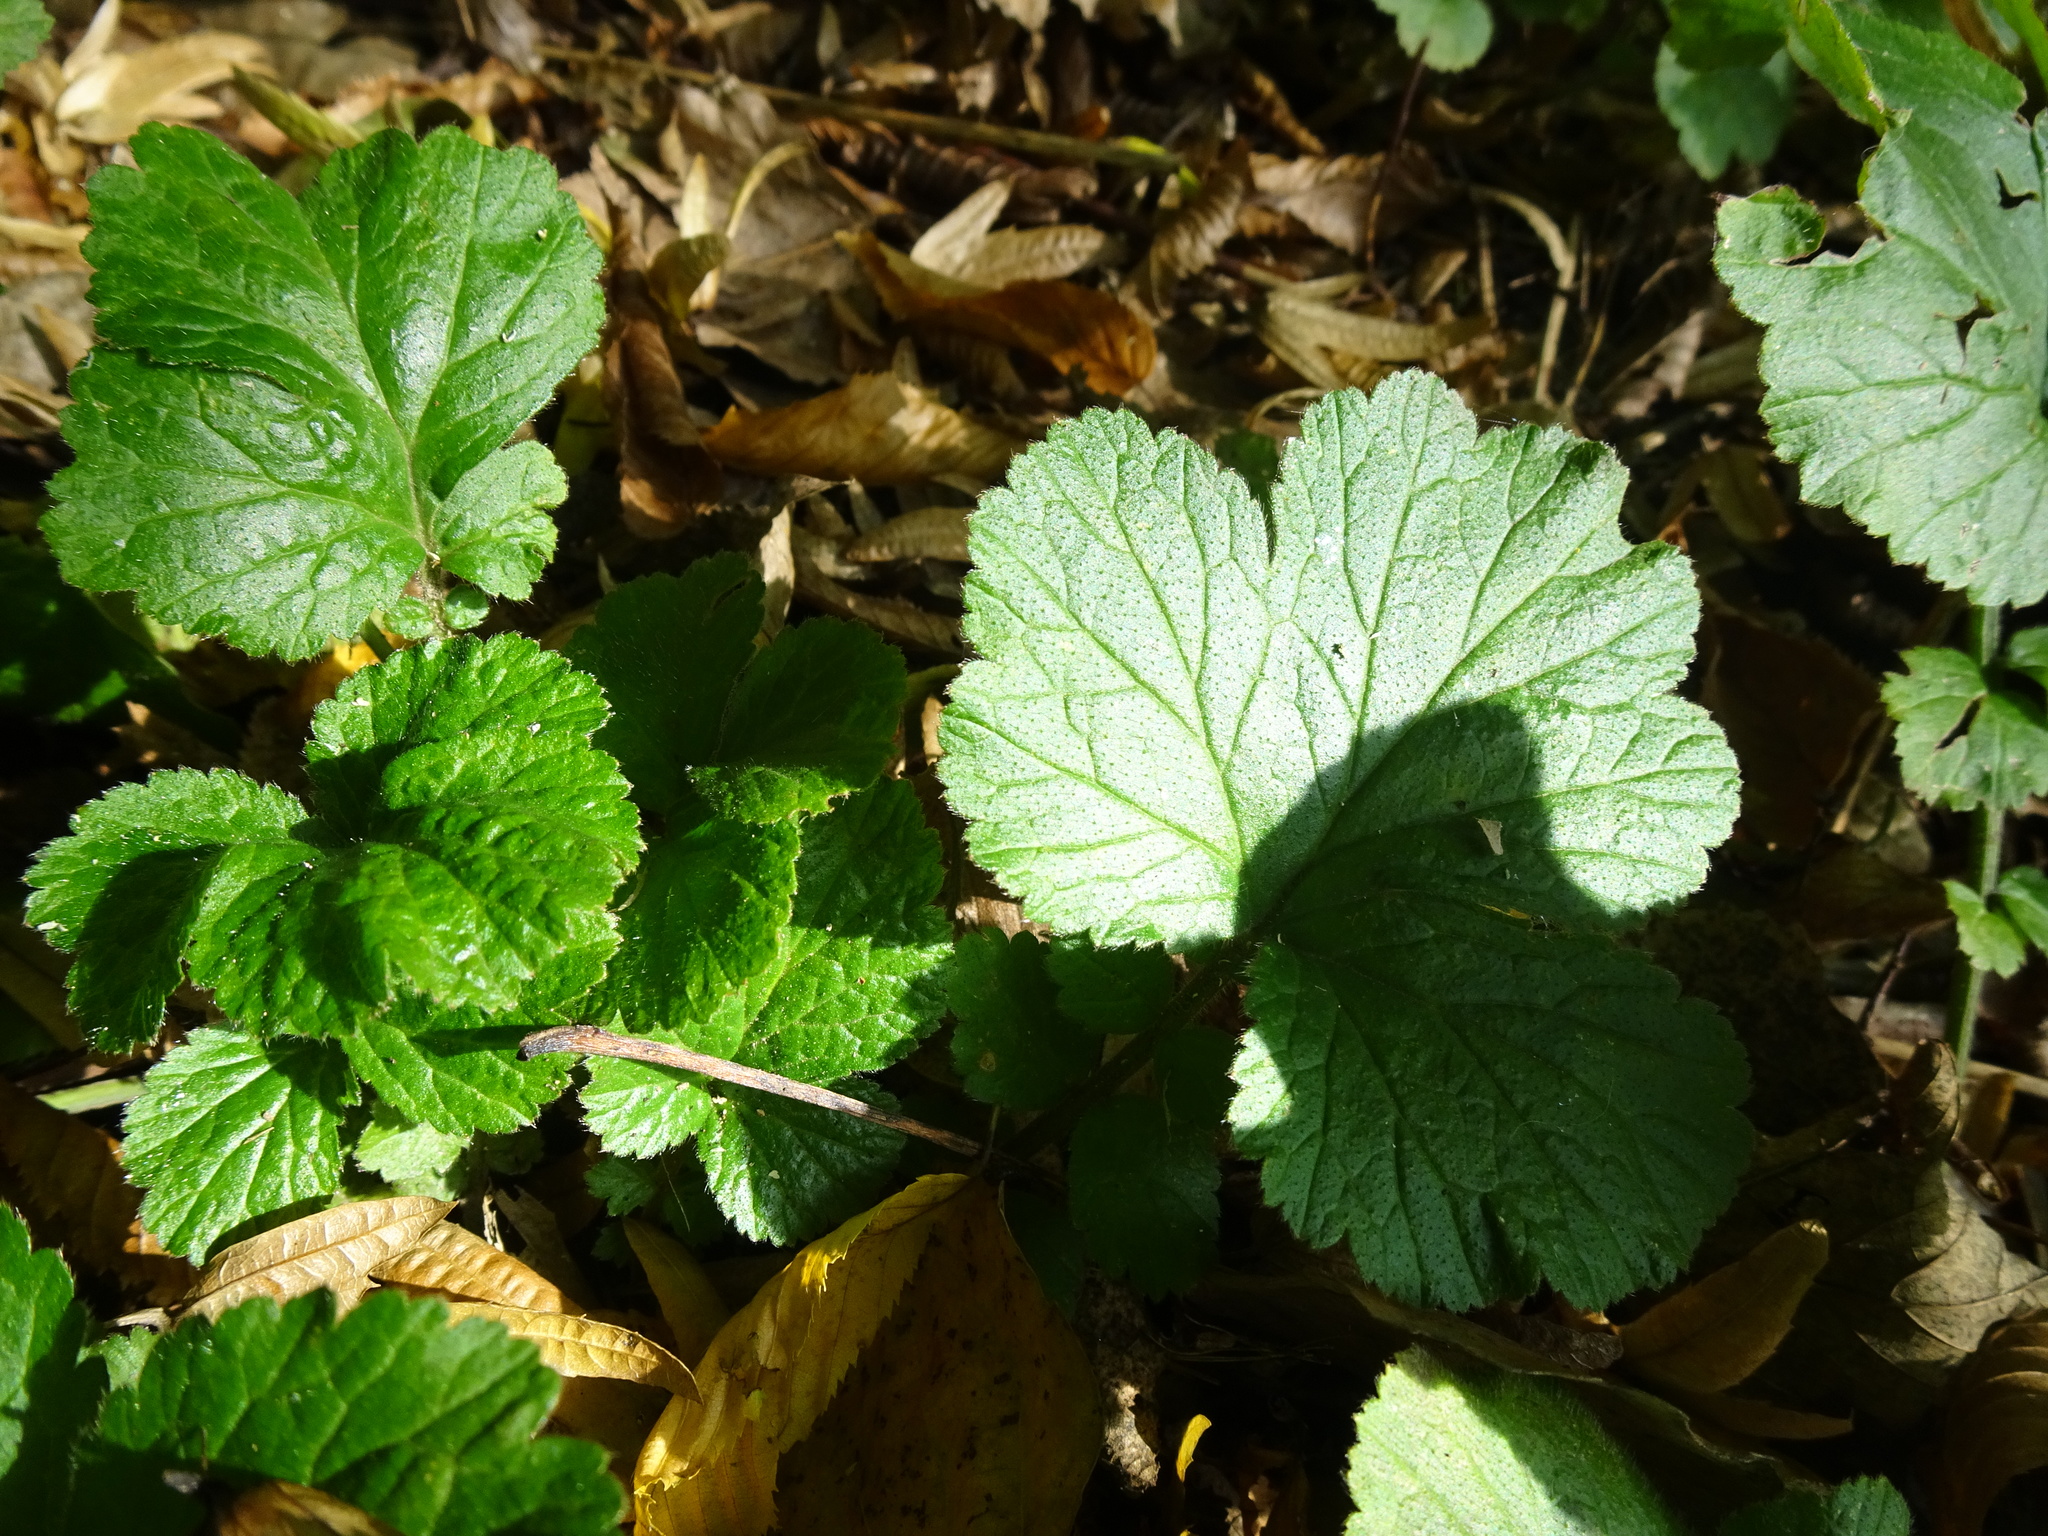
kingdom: Plantae
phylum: Tracheophyta
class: Magnoliopsida
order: Rosales
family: Rosaceae
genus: Geum
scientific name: Geum urbanum
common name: Wood avens
